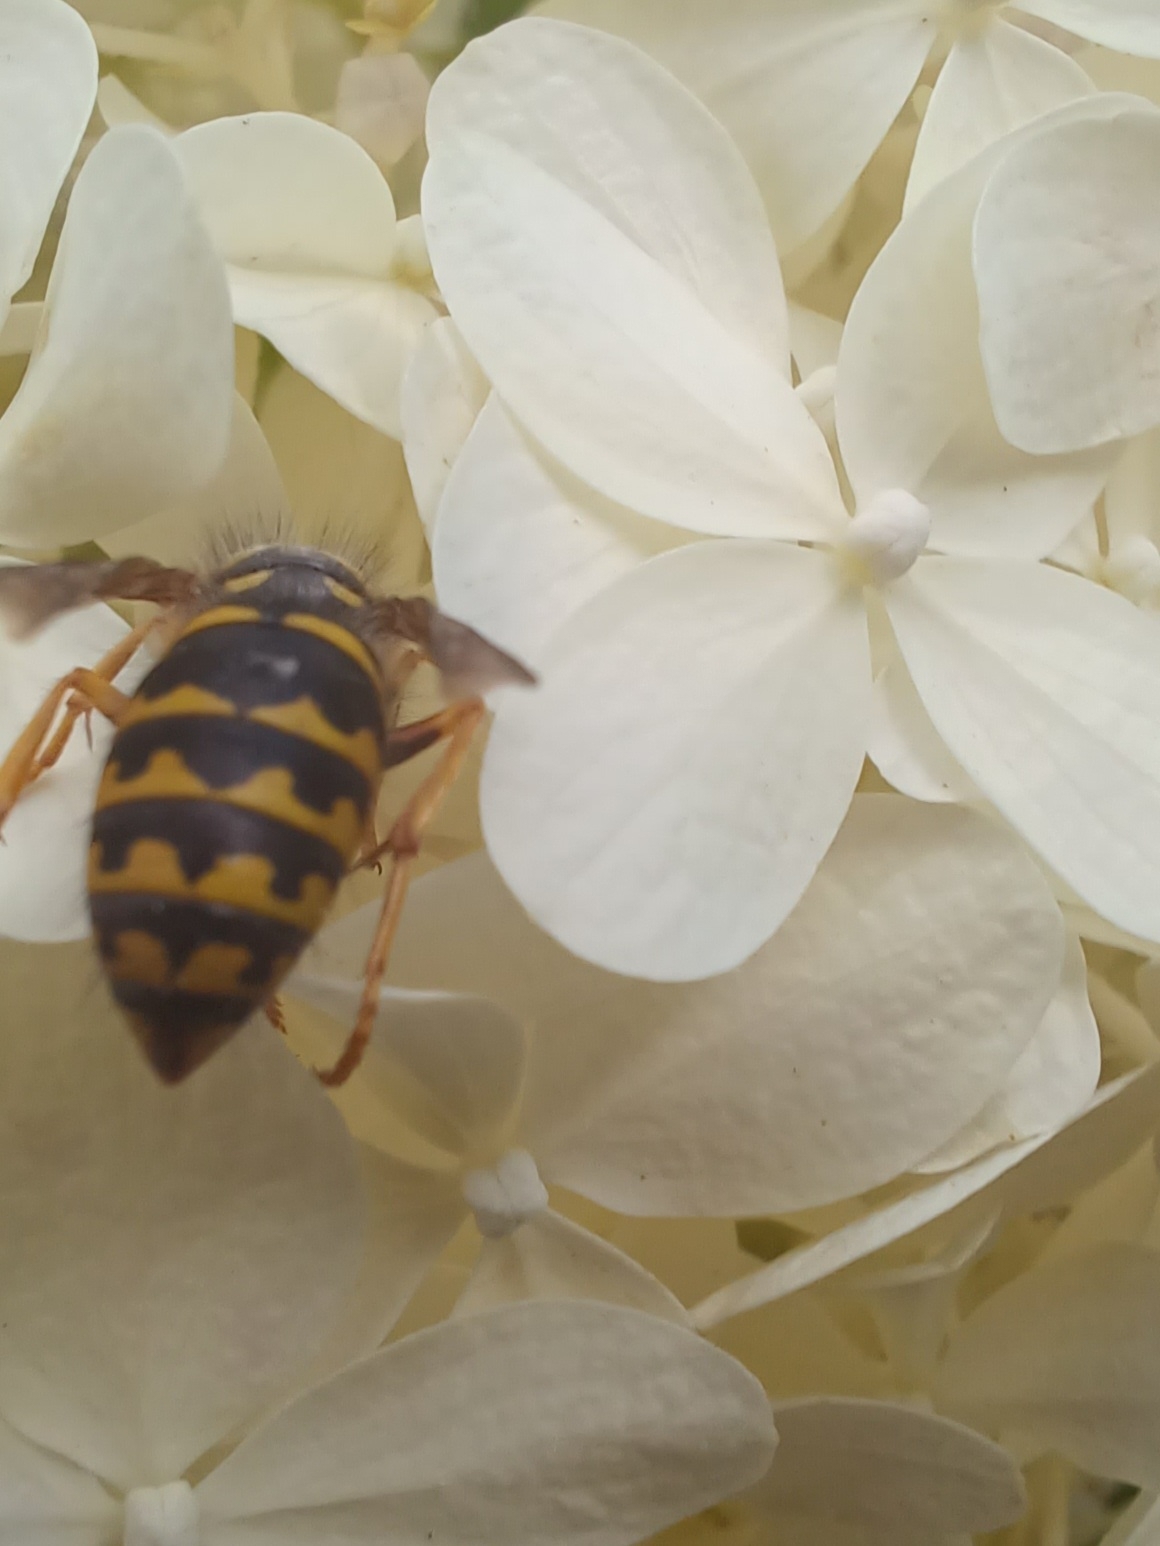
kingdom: Animalia
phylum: Arthropoda
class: Insecta
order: Hymenoptera
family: Vespidae
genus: Dolichovespula
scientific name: Dolichovespula arenaria
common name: Aerial yellowjacket
